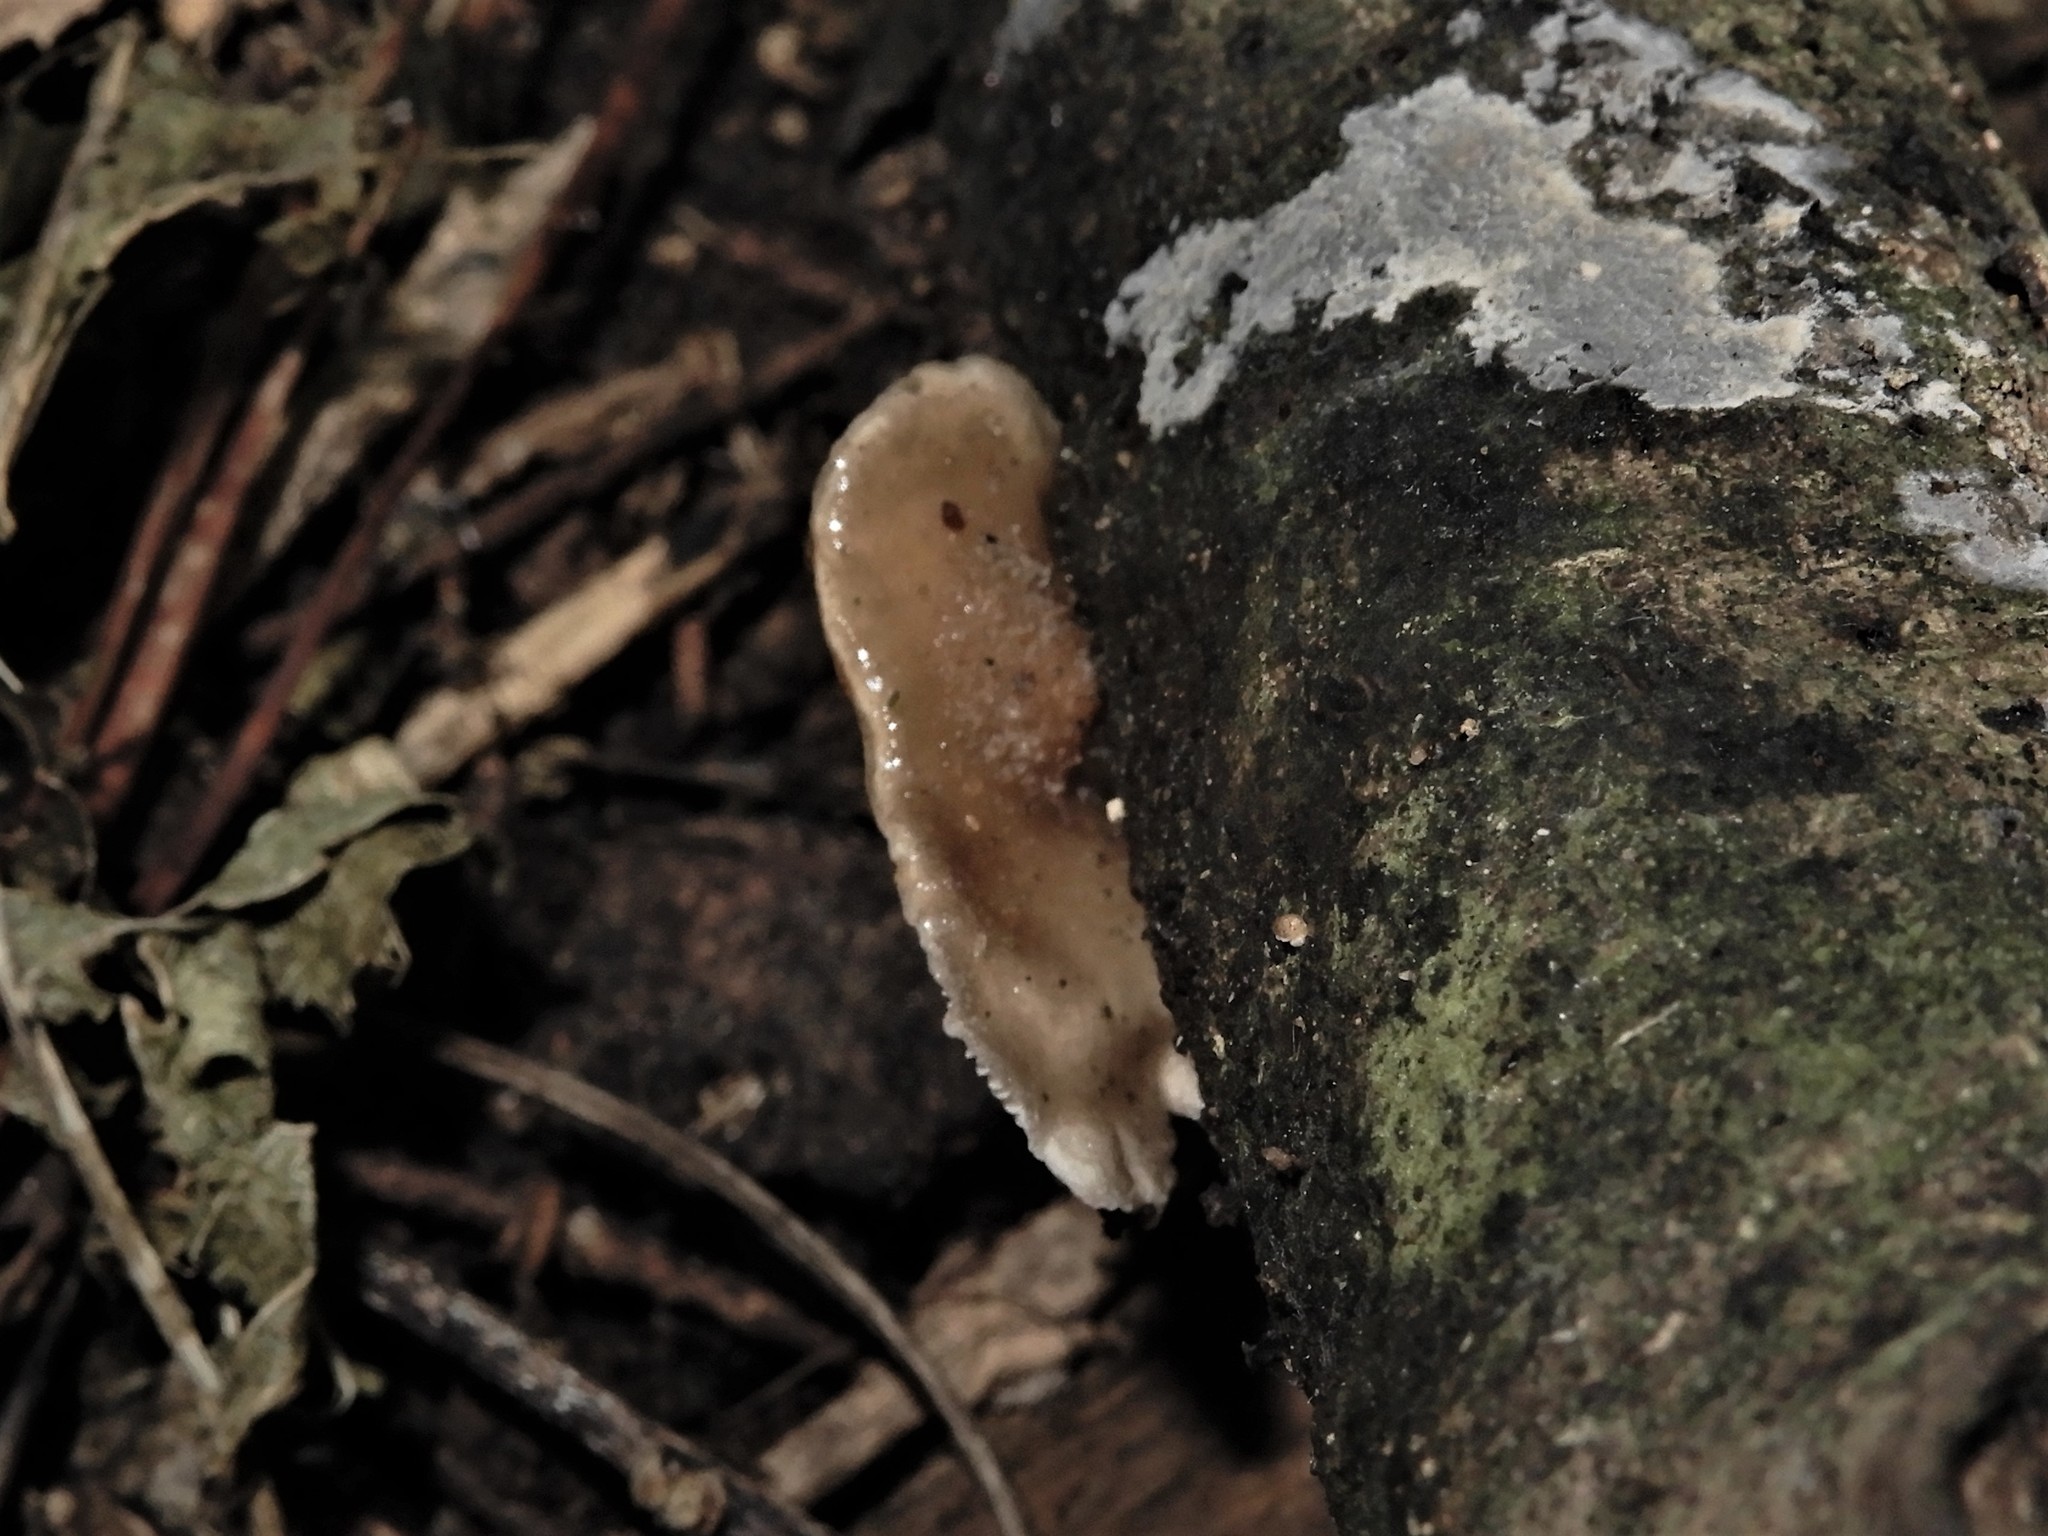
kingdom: Fungi
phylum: Basidiomycota
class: Agaricomycetes
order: Agaricales
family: Pleurotaceae
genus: Hohenbuehelia
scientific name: Hohenbuehelia brunnea
